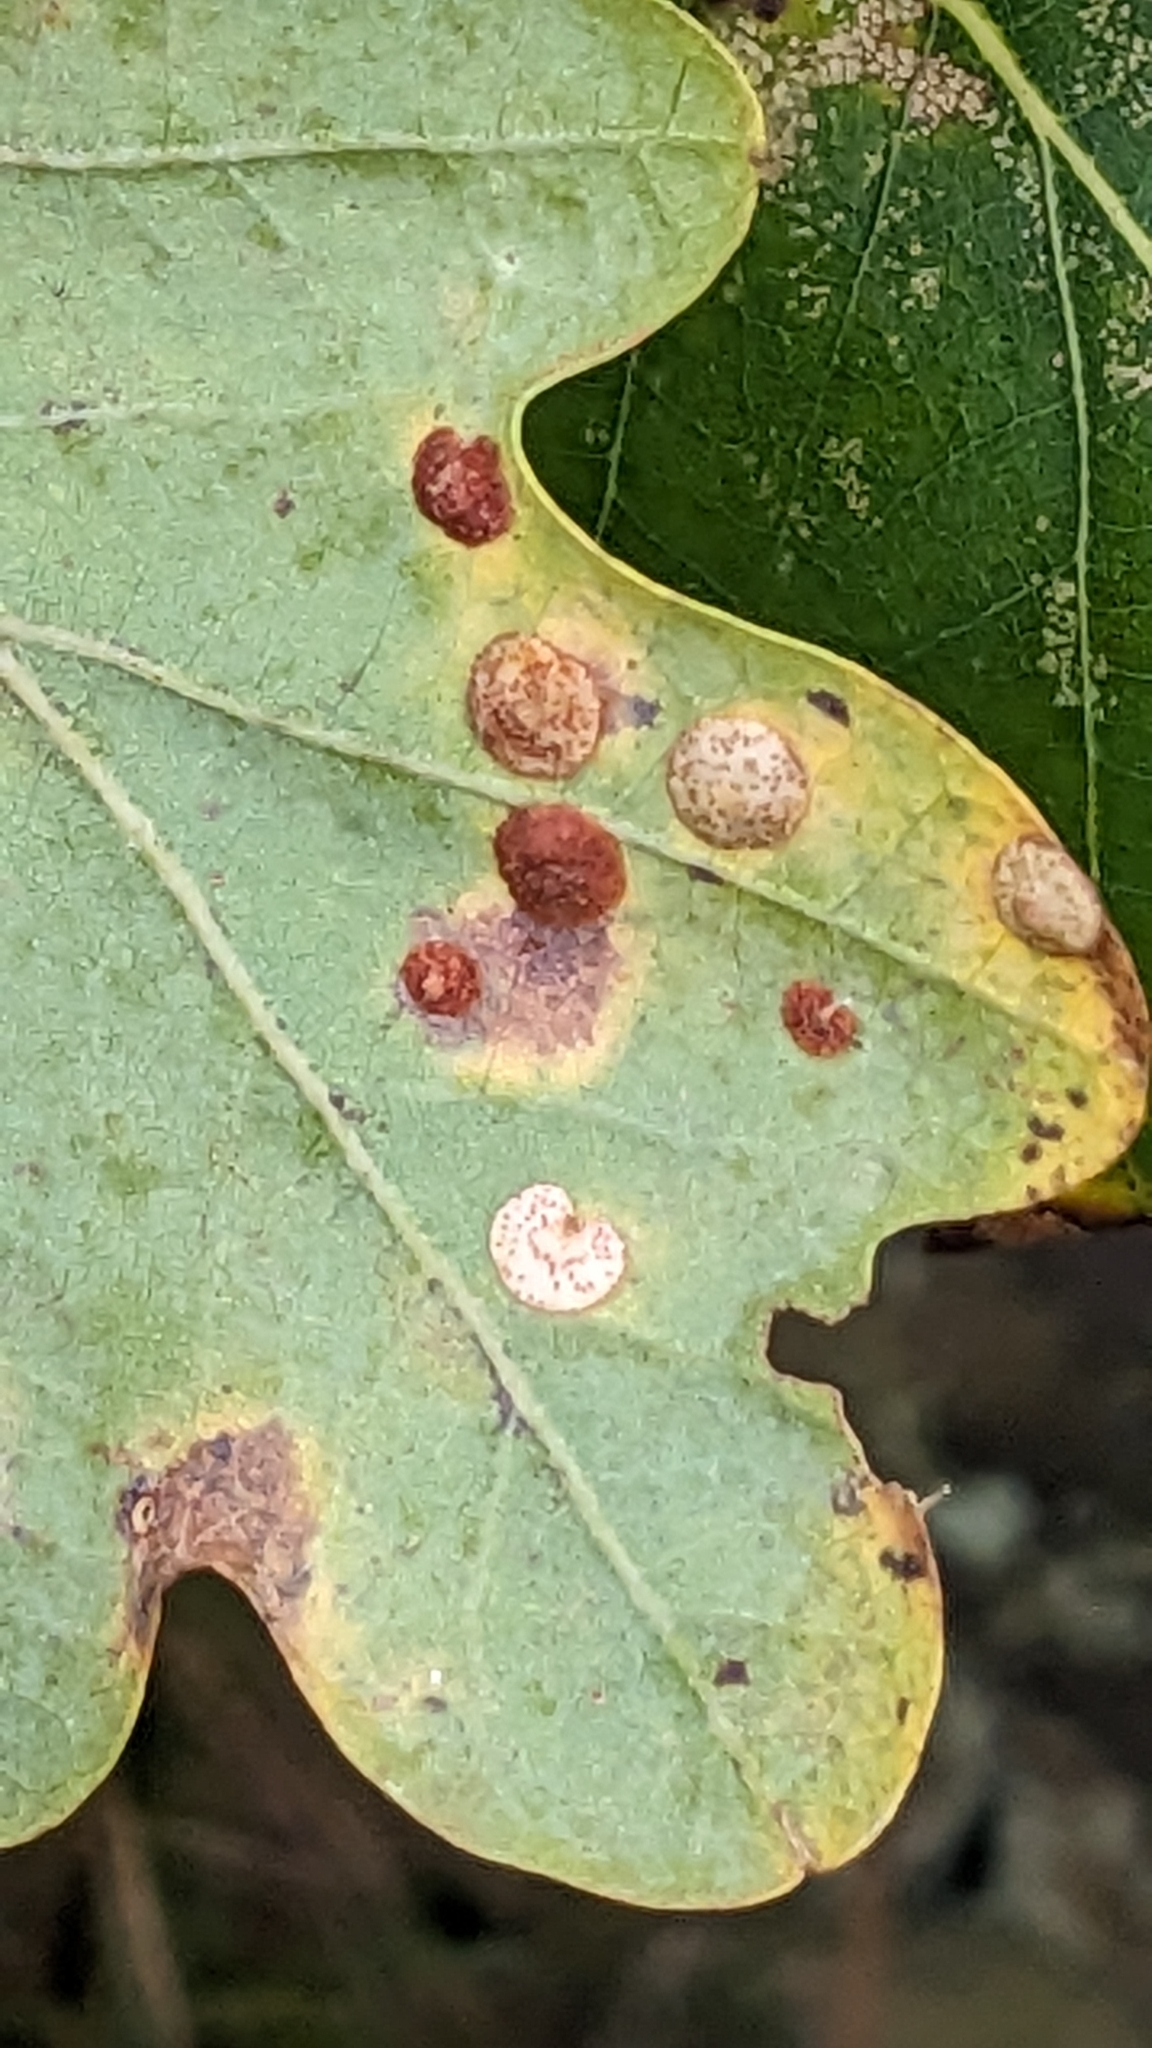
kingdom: Animalia
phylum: Arthropoda
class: Insecta
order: Hymenoptera
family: Cynipidae
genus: Neuroterus
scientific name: Neuroterus quercusbaccarum
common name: Common spangle gall
